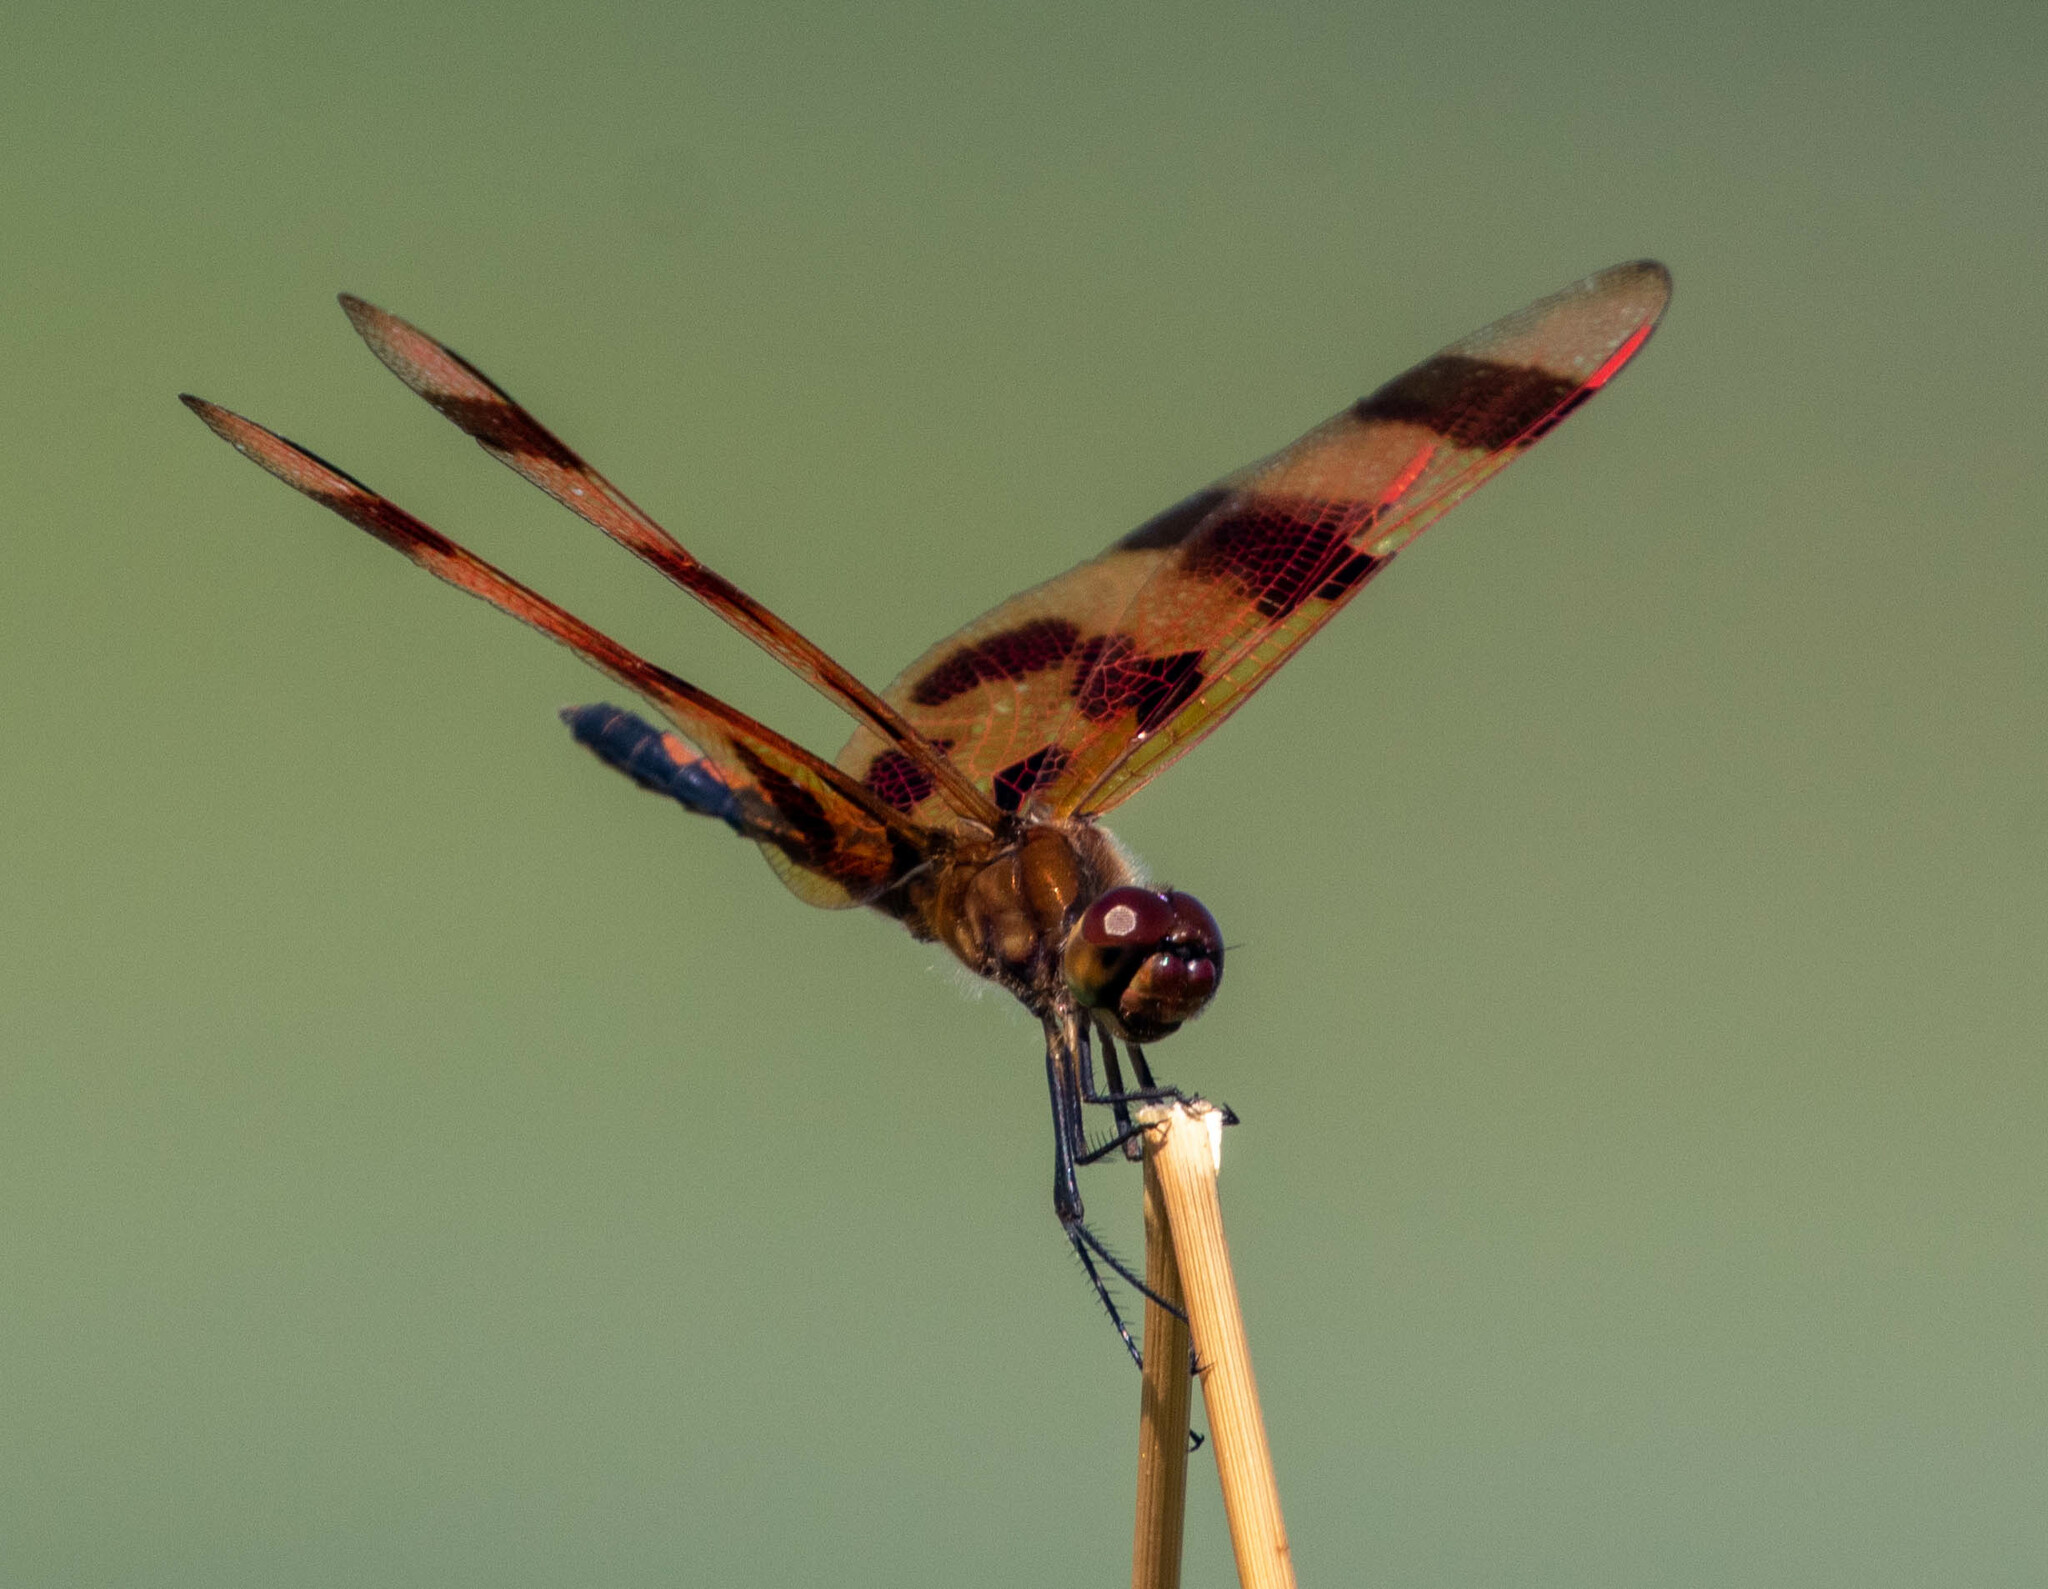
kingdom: Animalia
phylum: Arthropoda
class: Insecta
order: Odonata
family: Libellulidae
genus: Celithemis
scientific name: Celithemis eponina
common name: Halloween pennant
